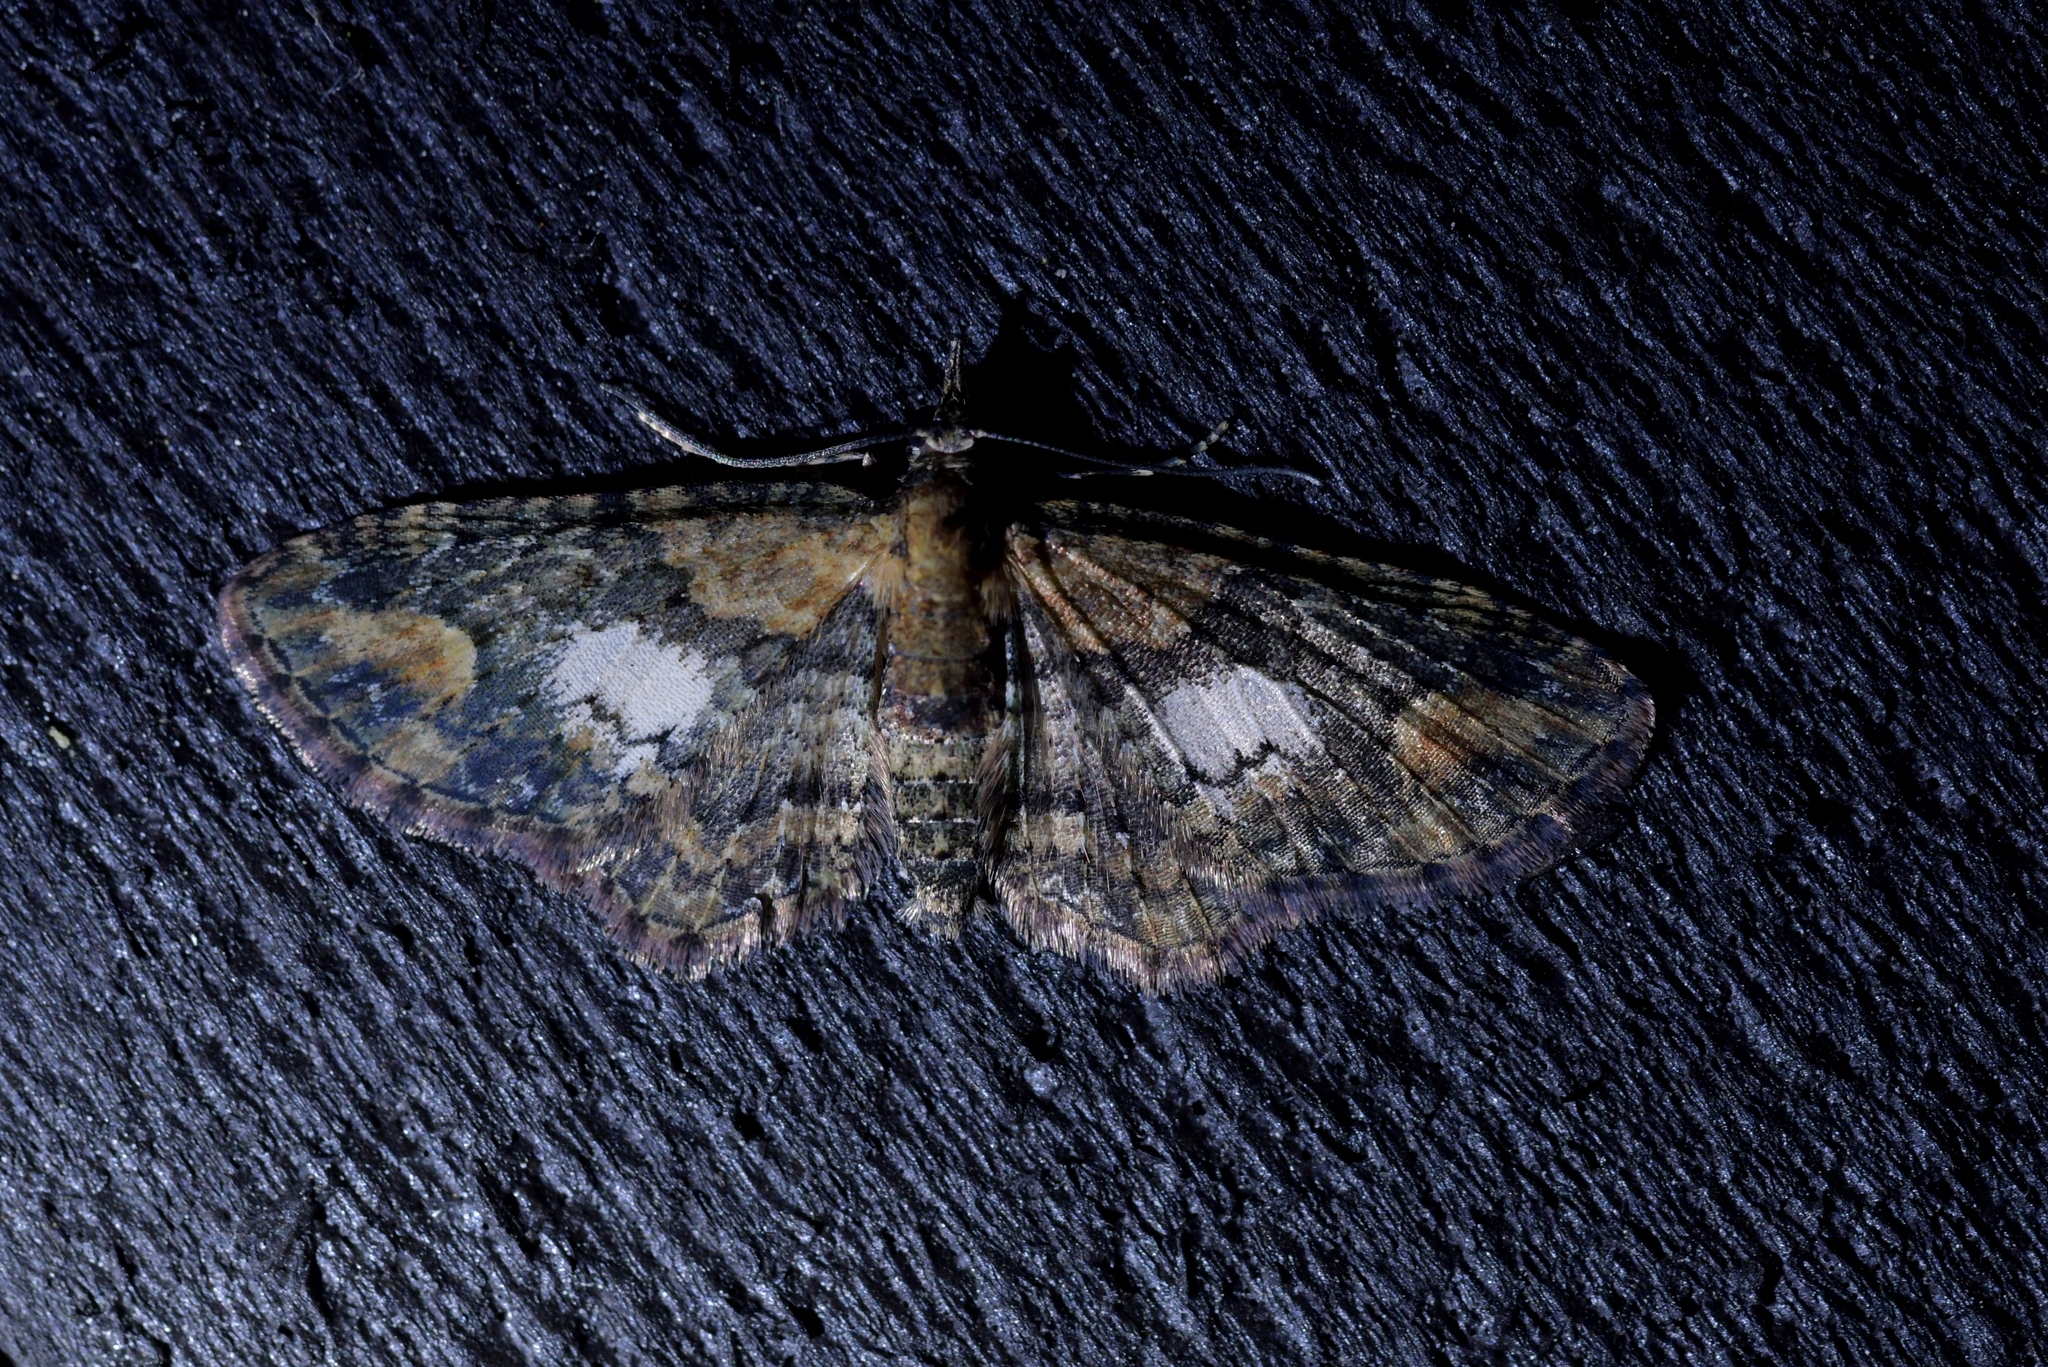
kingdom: Animalia
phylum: Arthropoda
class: Insecta
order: Lepidoptera
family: Geometridae
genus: Pasiphilodes
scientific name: Pasiphilodes testulata
